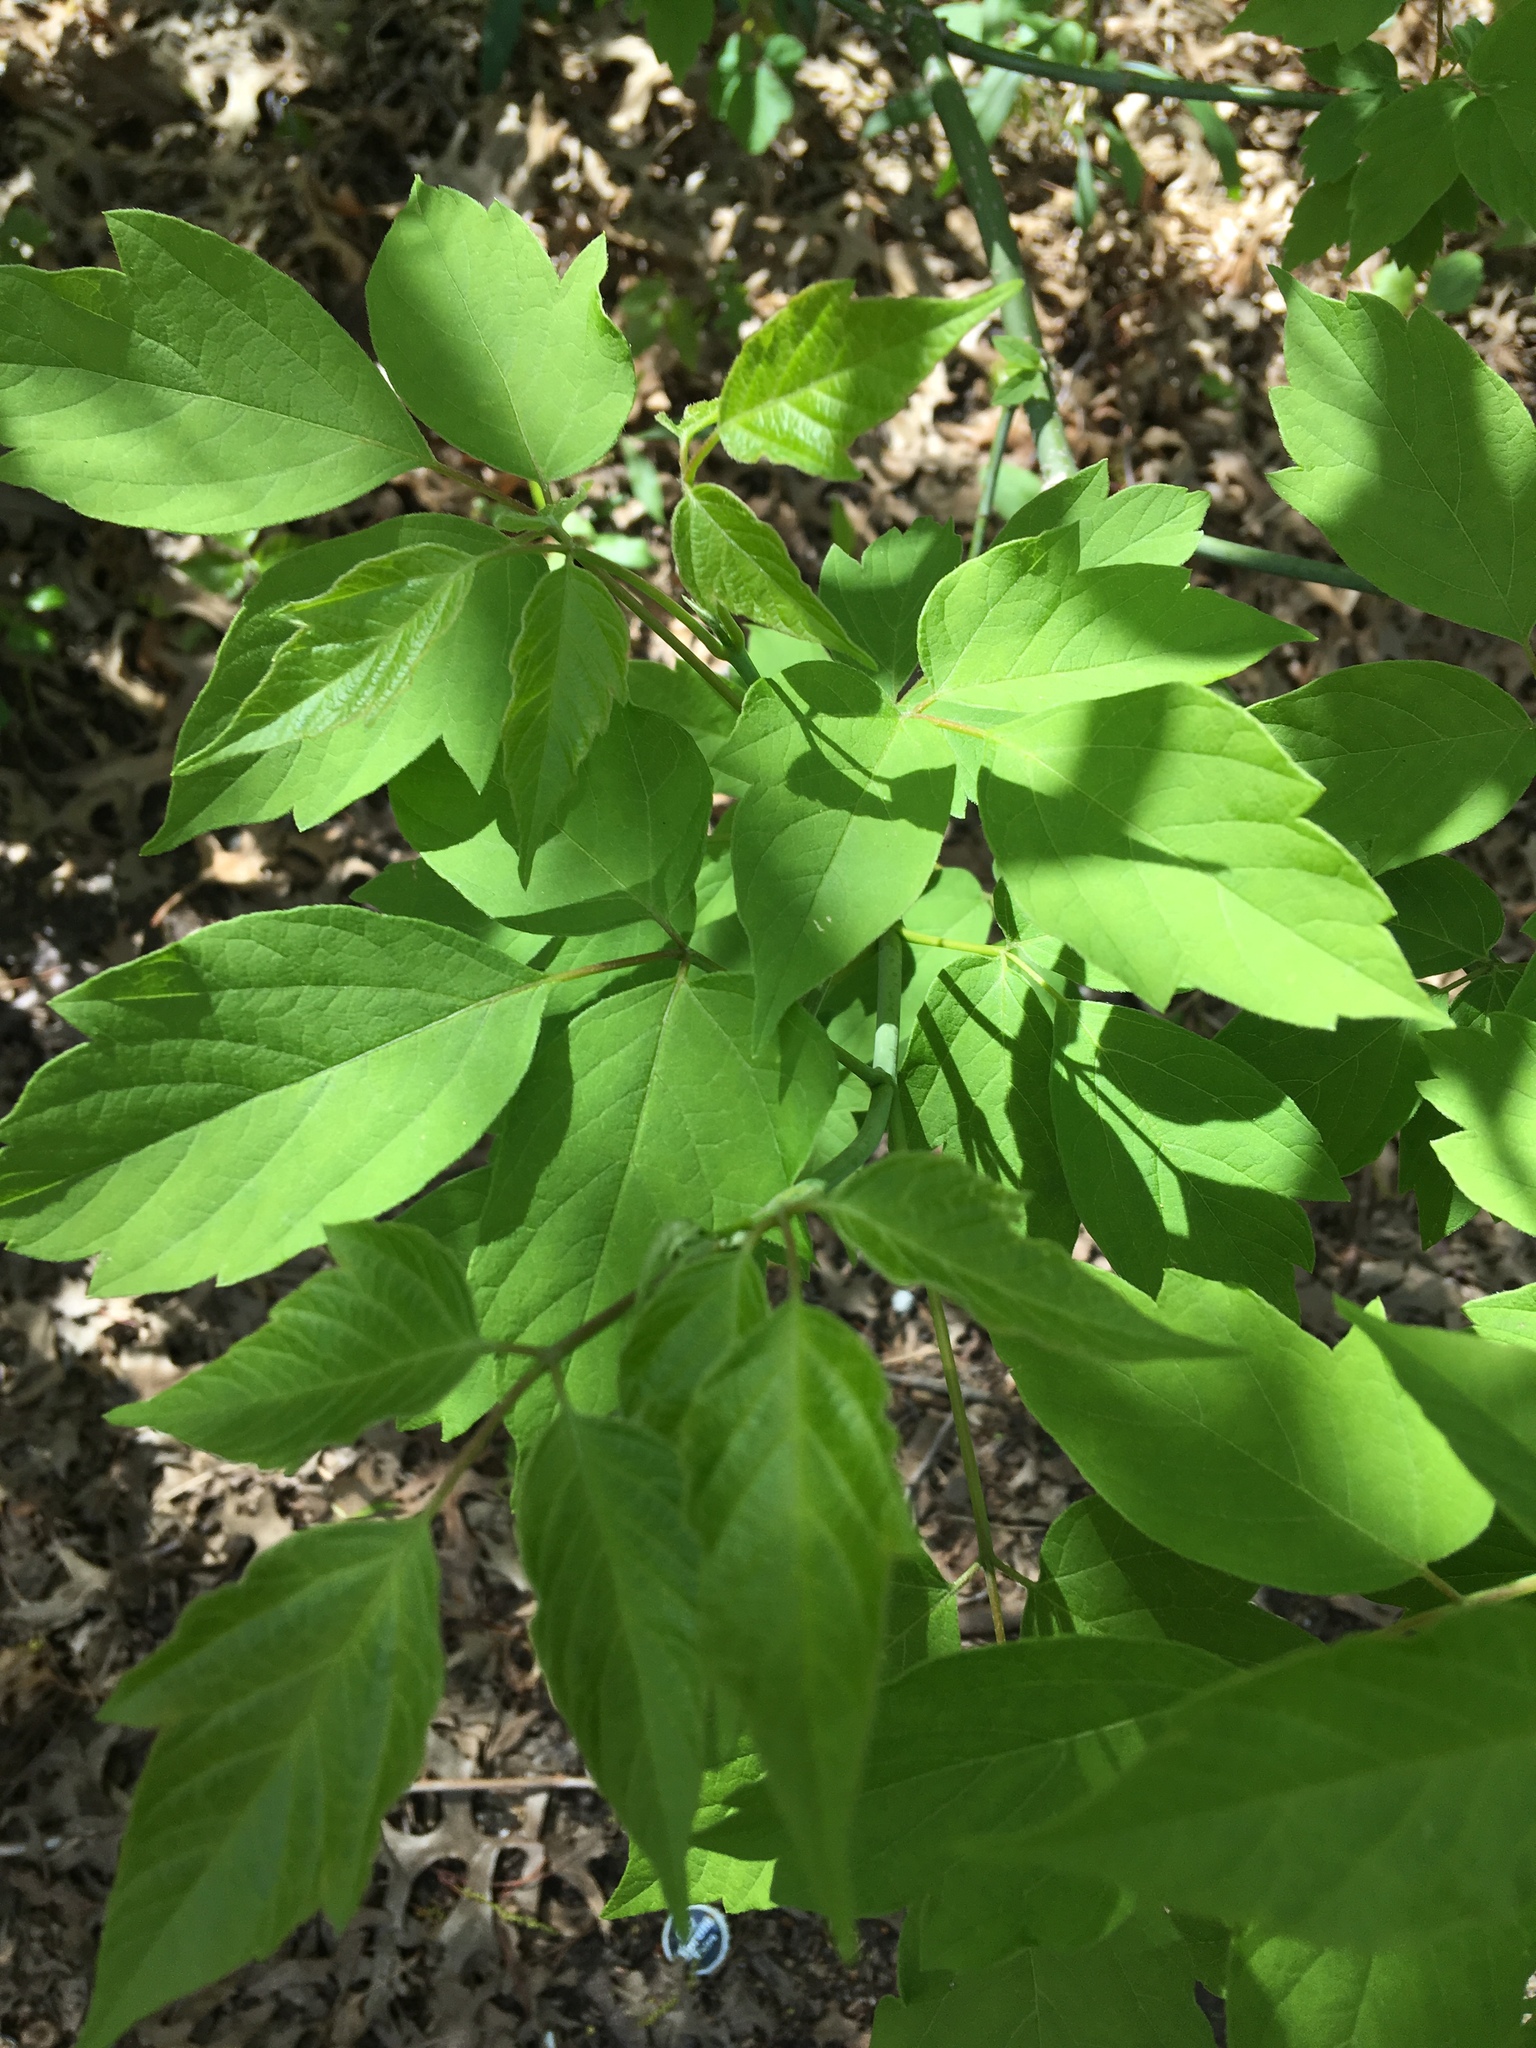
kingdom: Plantae
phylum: Tracheophyta
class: Magnoliopsida
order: Sapindales
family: Sapindaceae
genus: Acer
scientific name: Acer negundo
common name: Ashleaf maple
